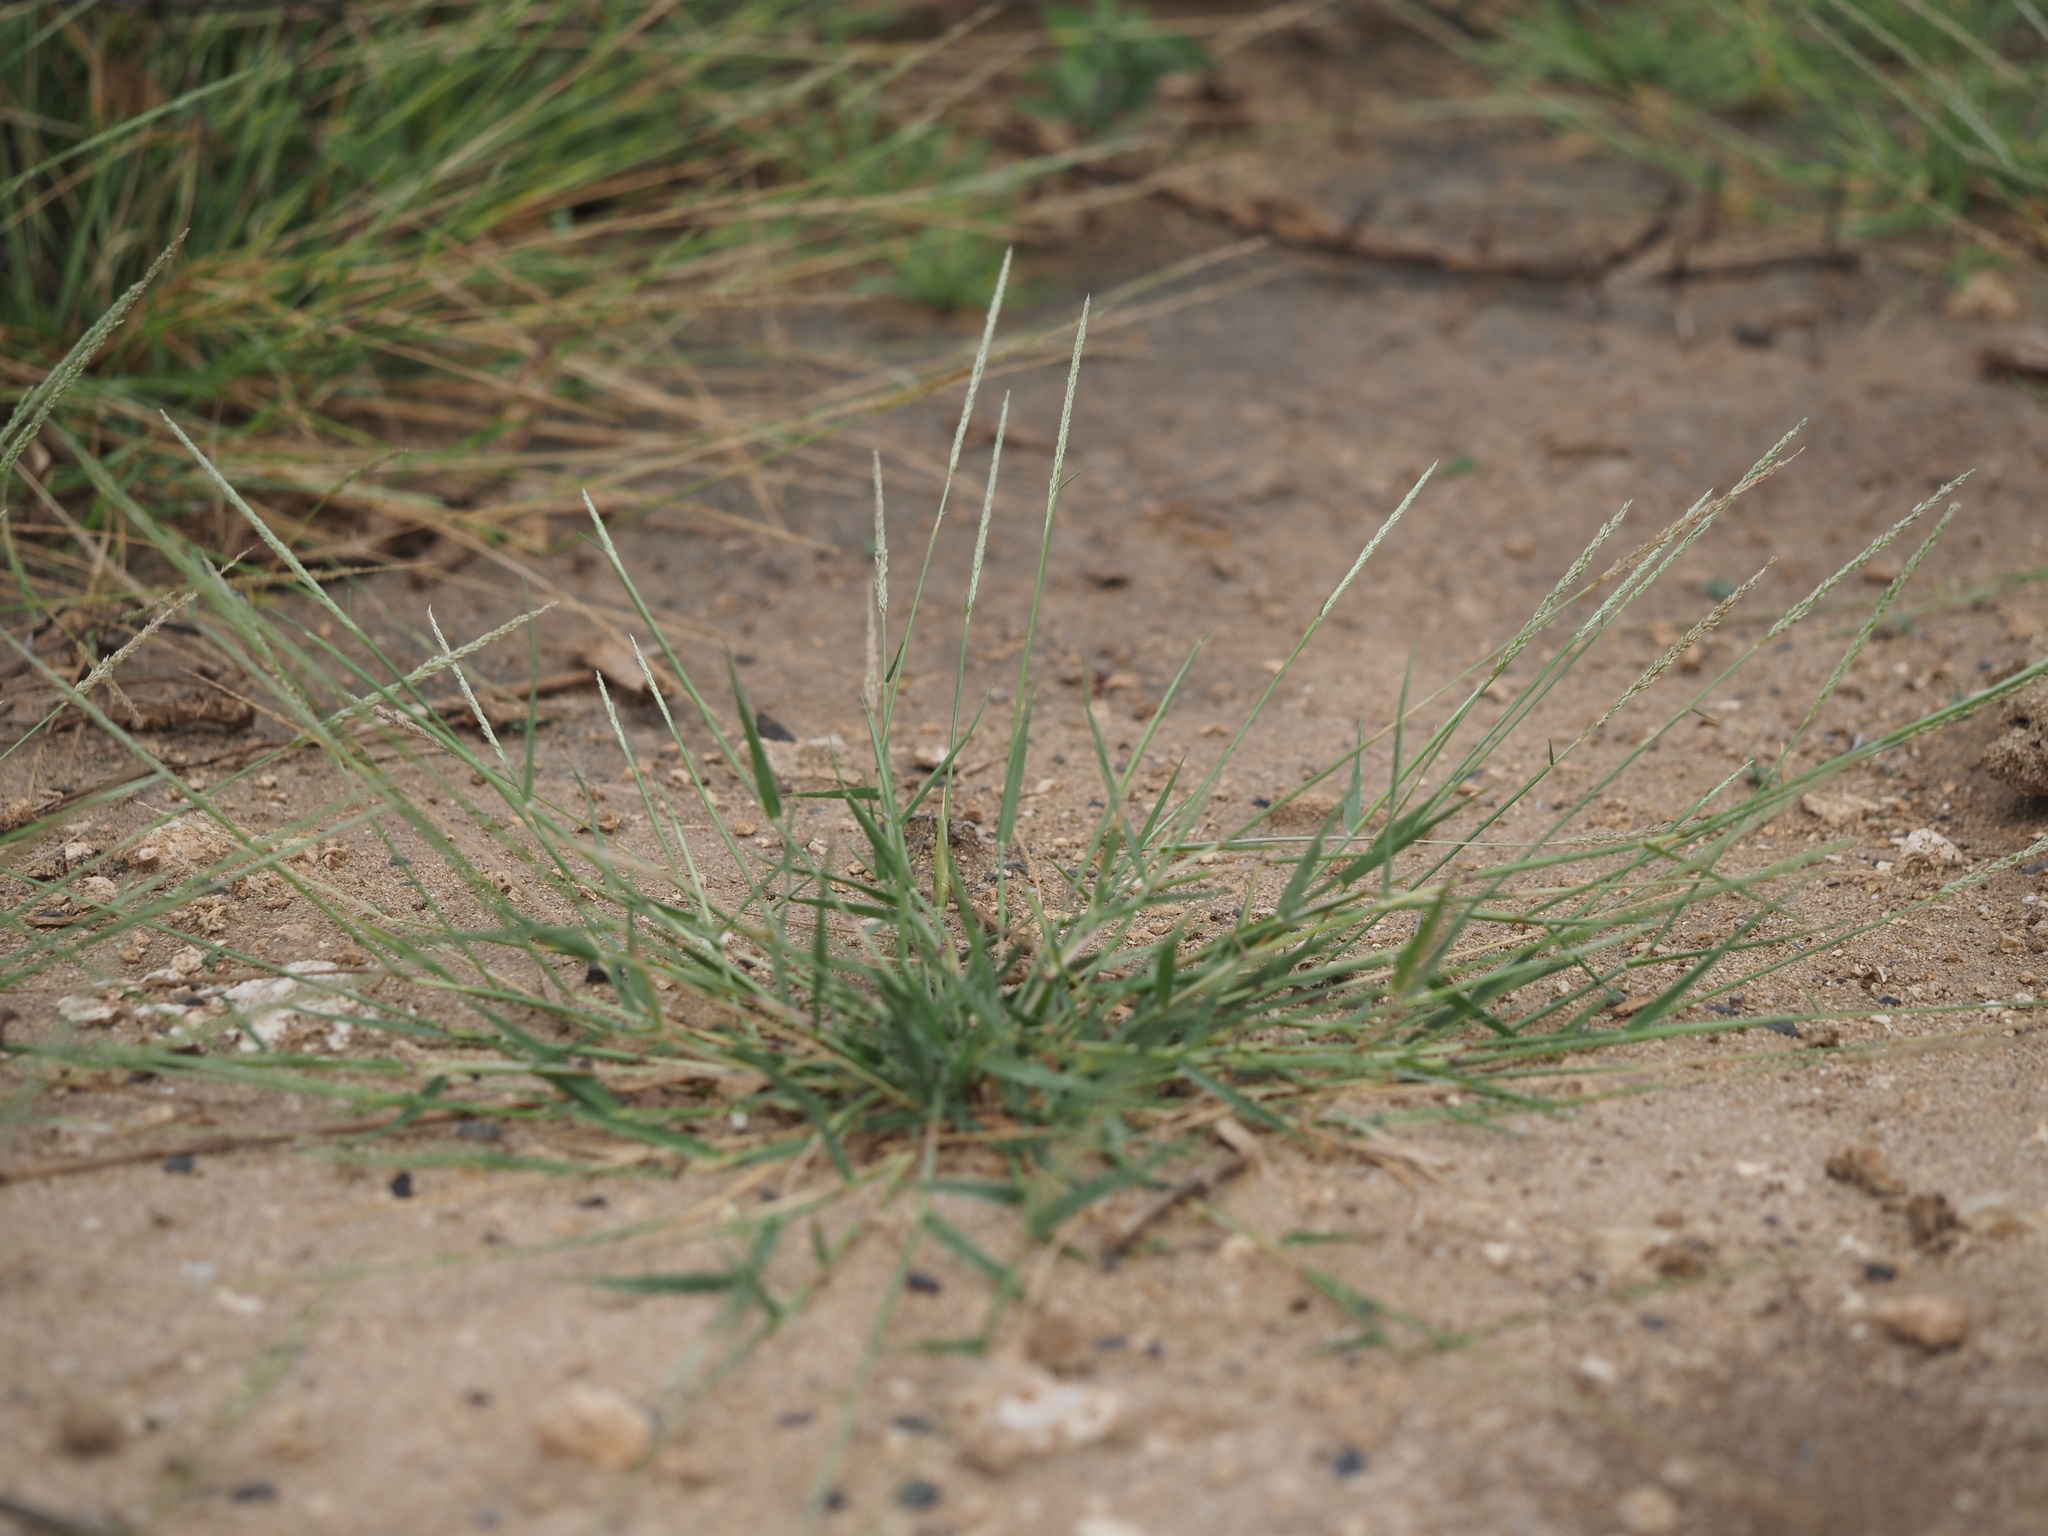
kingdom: Plantae
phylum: Tracheophyta
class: Liliopsida
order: Poales
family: Poaceae
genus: Sporobolus
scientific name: Sporobolus pyramidatus
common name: Whorled dropseed
